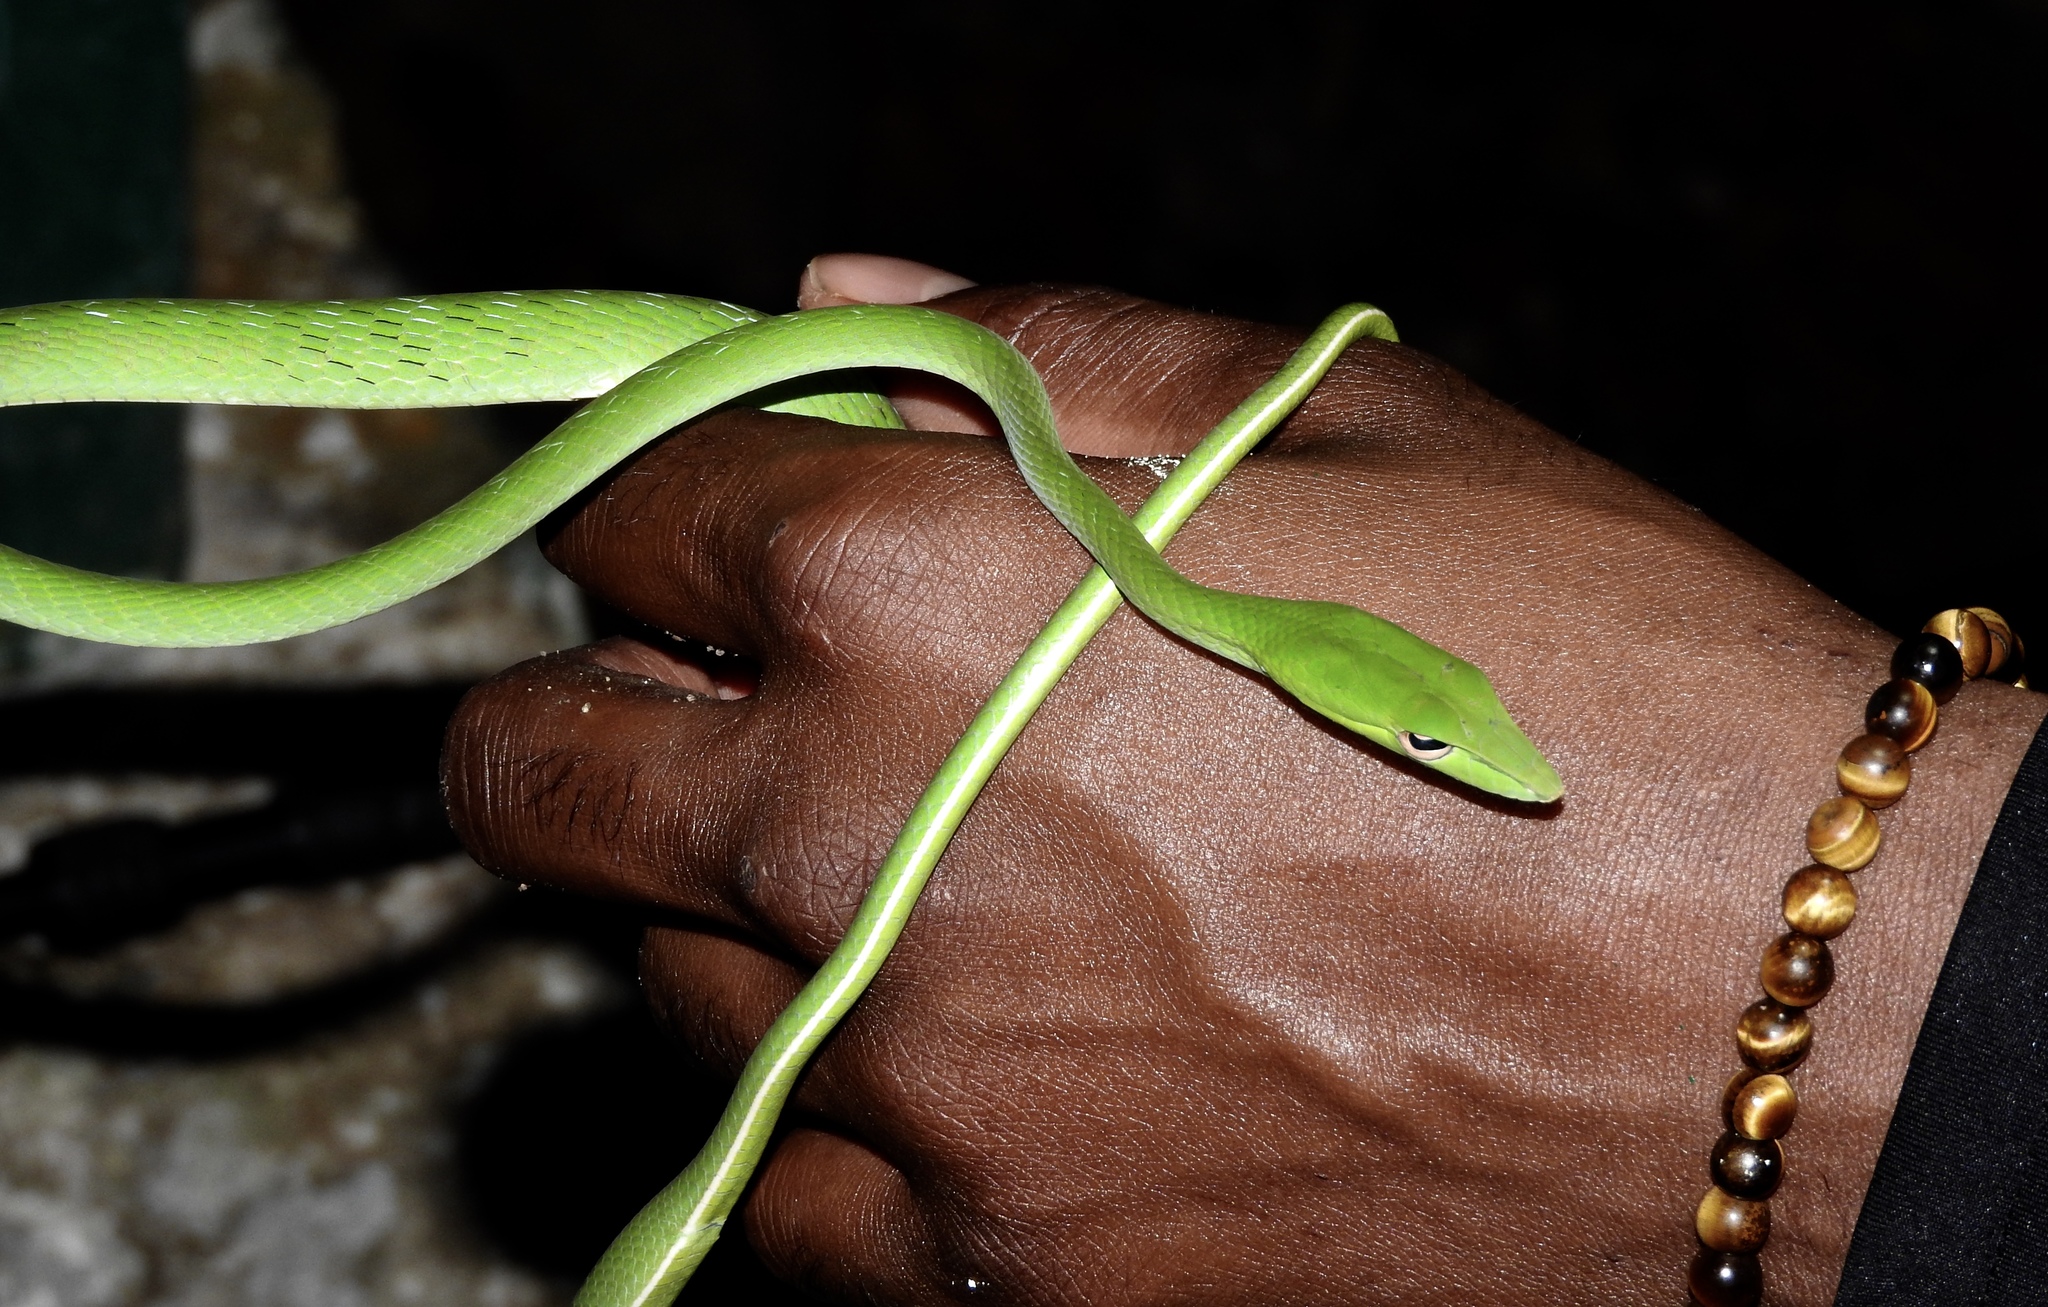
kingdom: Animalia
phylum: Chordata
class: Squamata
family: Colubridae
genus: Ahaetulla
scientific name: Ahaetulla prasina
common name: Oriental whip snake
